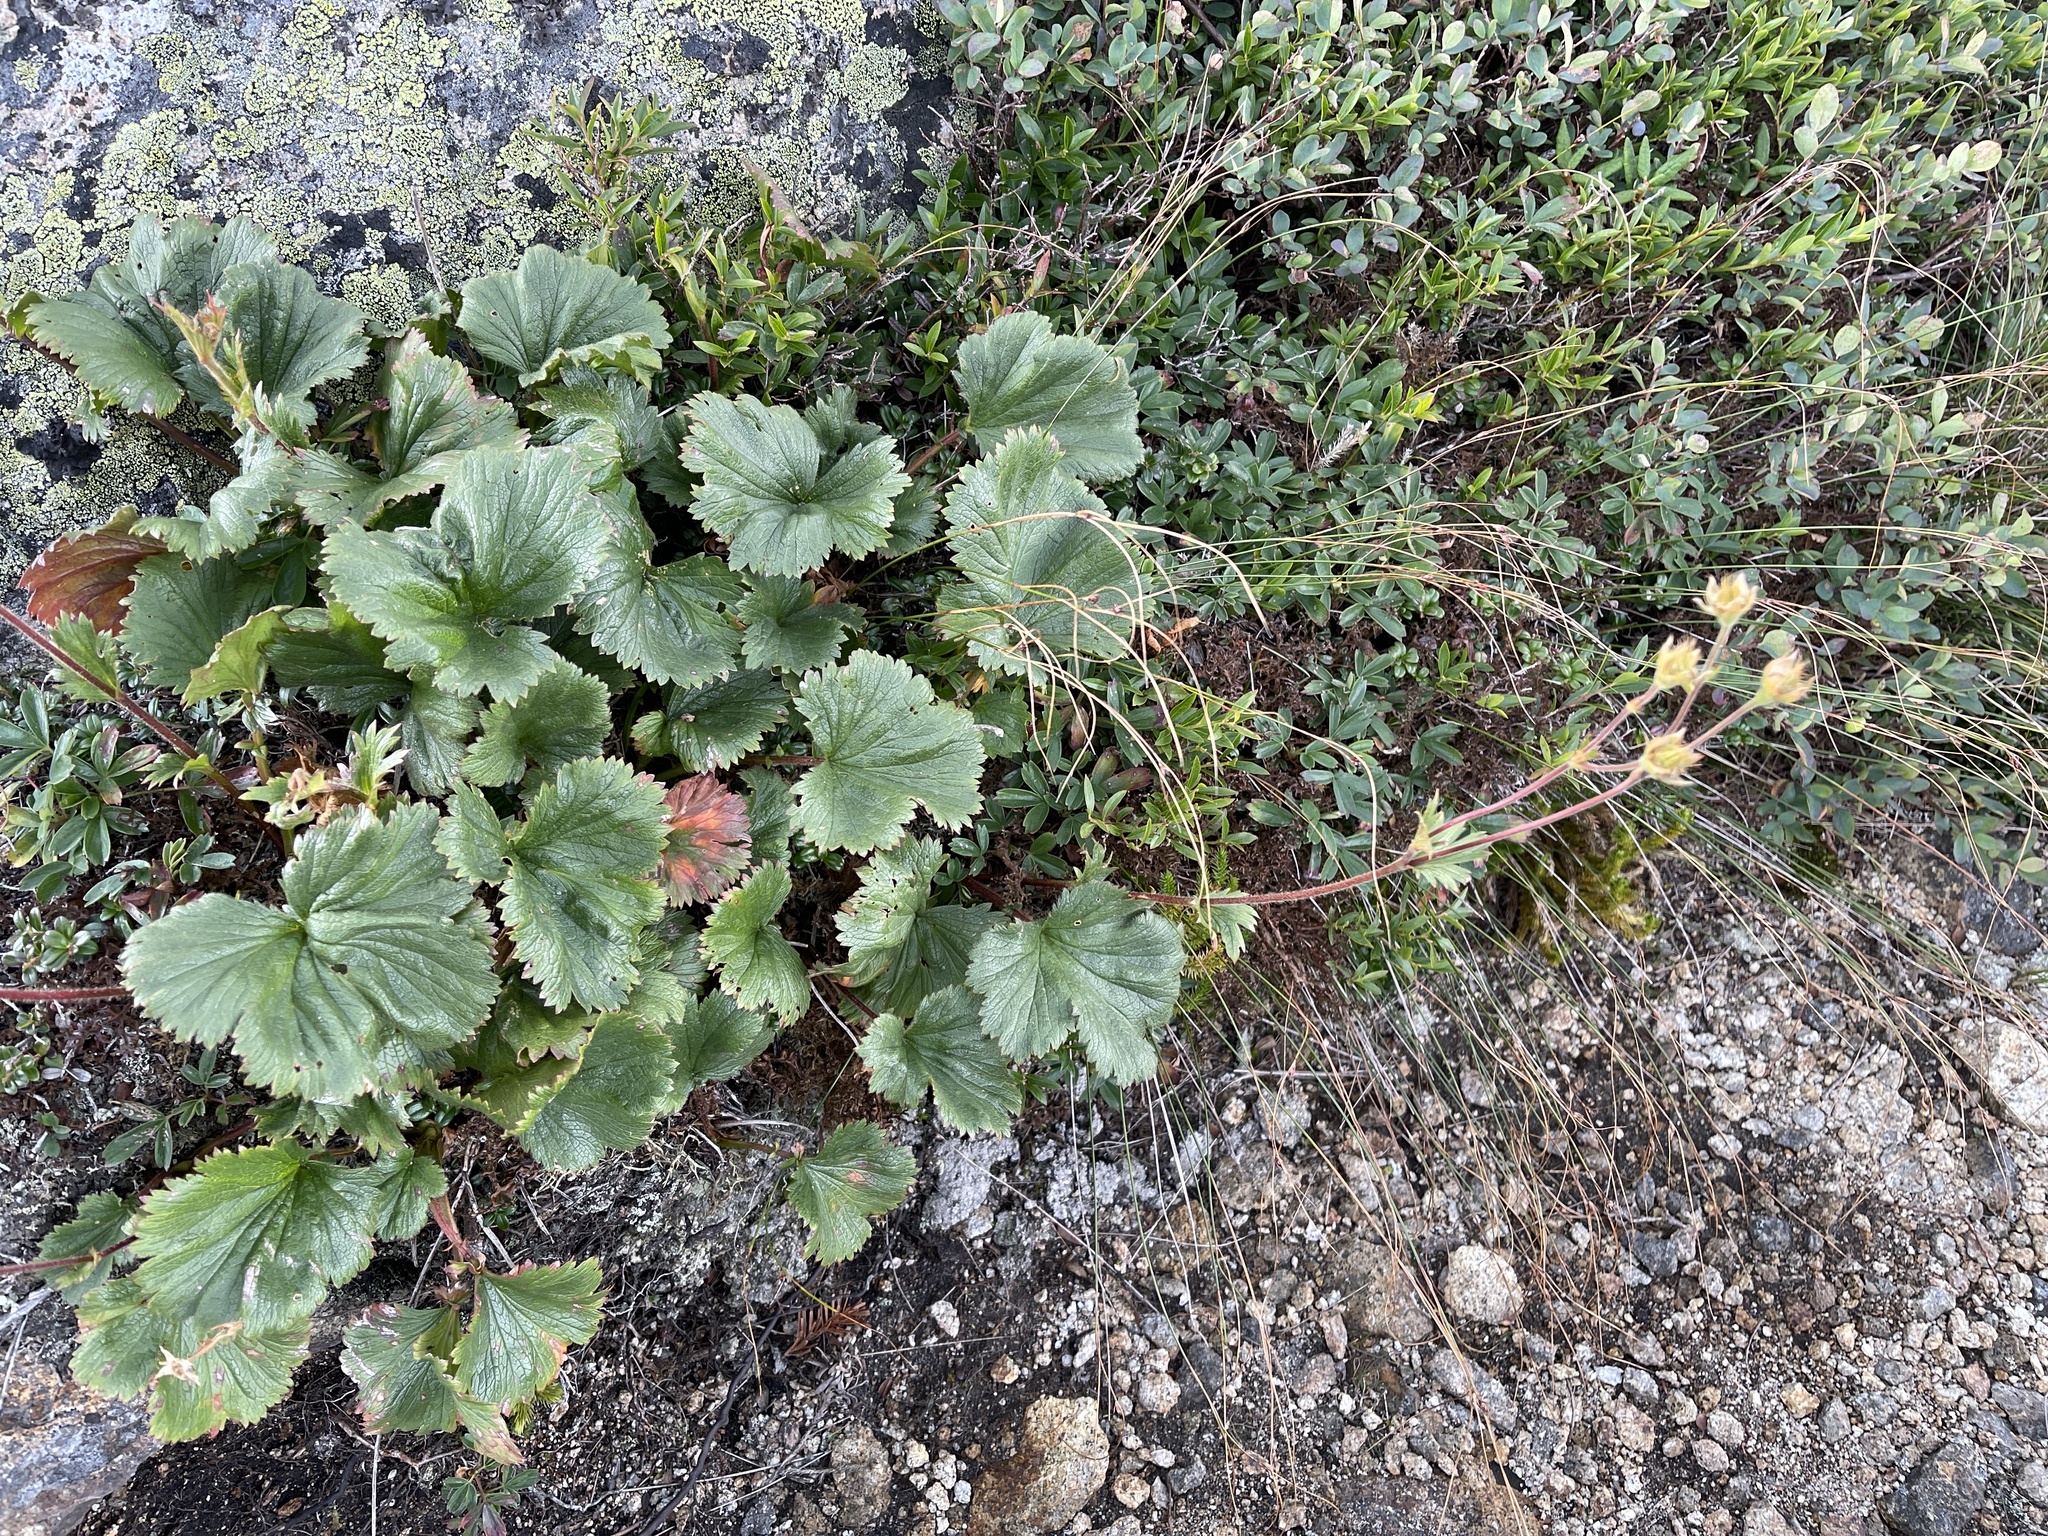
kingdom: Plantae
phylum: Tracheophyta
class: Magnoliopsida
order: Rosales
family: Rosaceae
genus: Geum
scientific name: Geum peckii
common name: Eastern mountain avens
